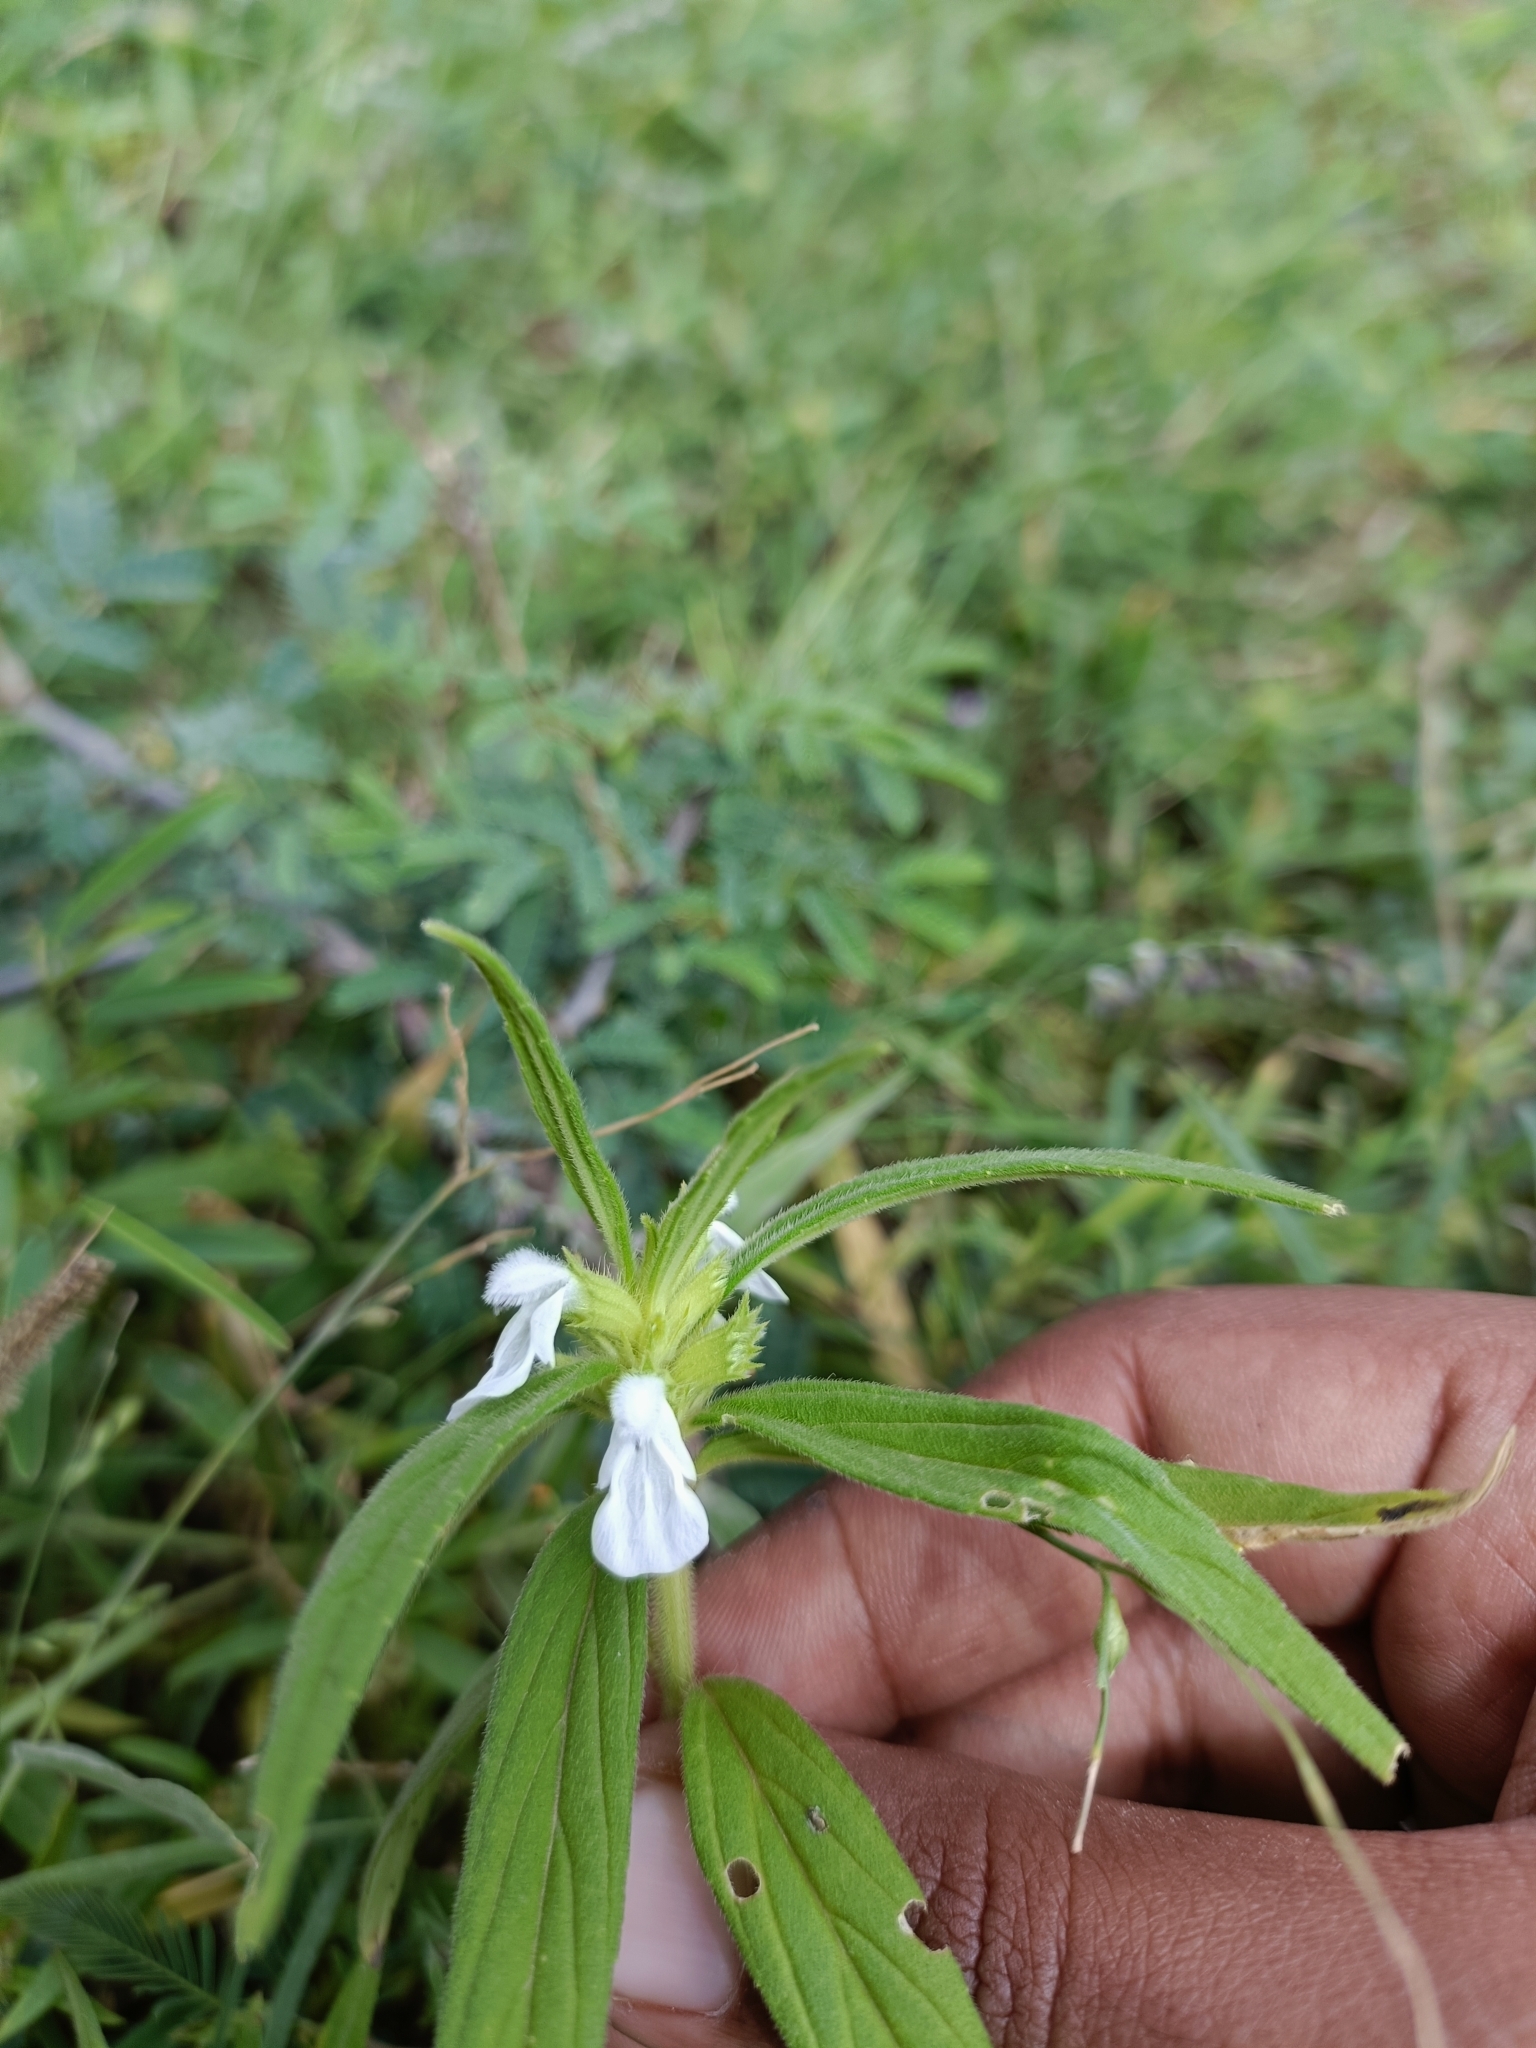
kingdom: Plantae
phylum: Tracheophyta
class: Magnoliopsida
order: Lamiales
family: Lamiaceae
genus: Leucas
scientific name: Leucas aspera
